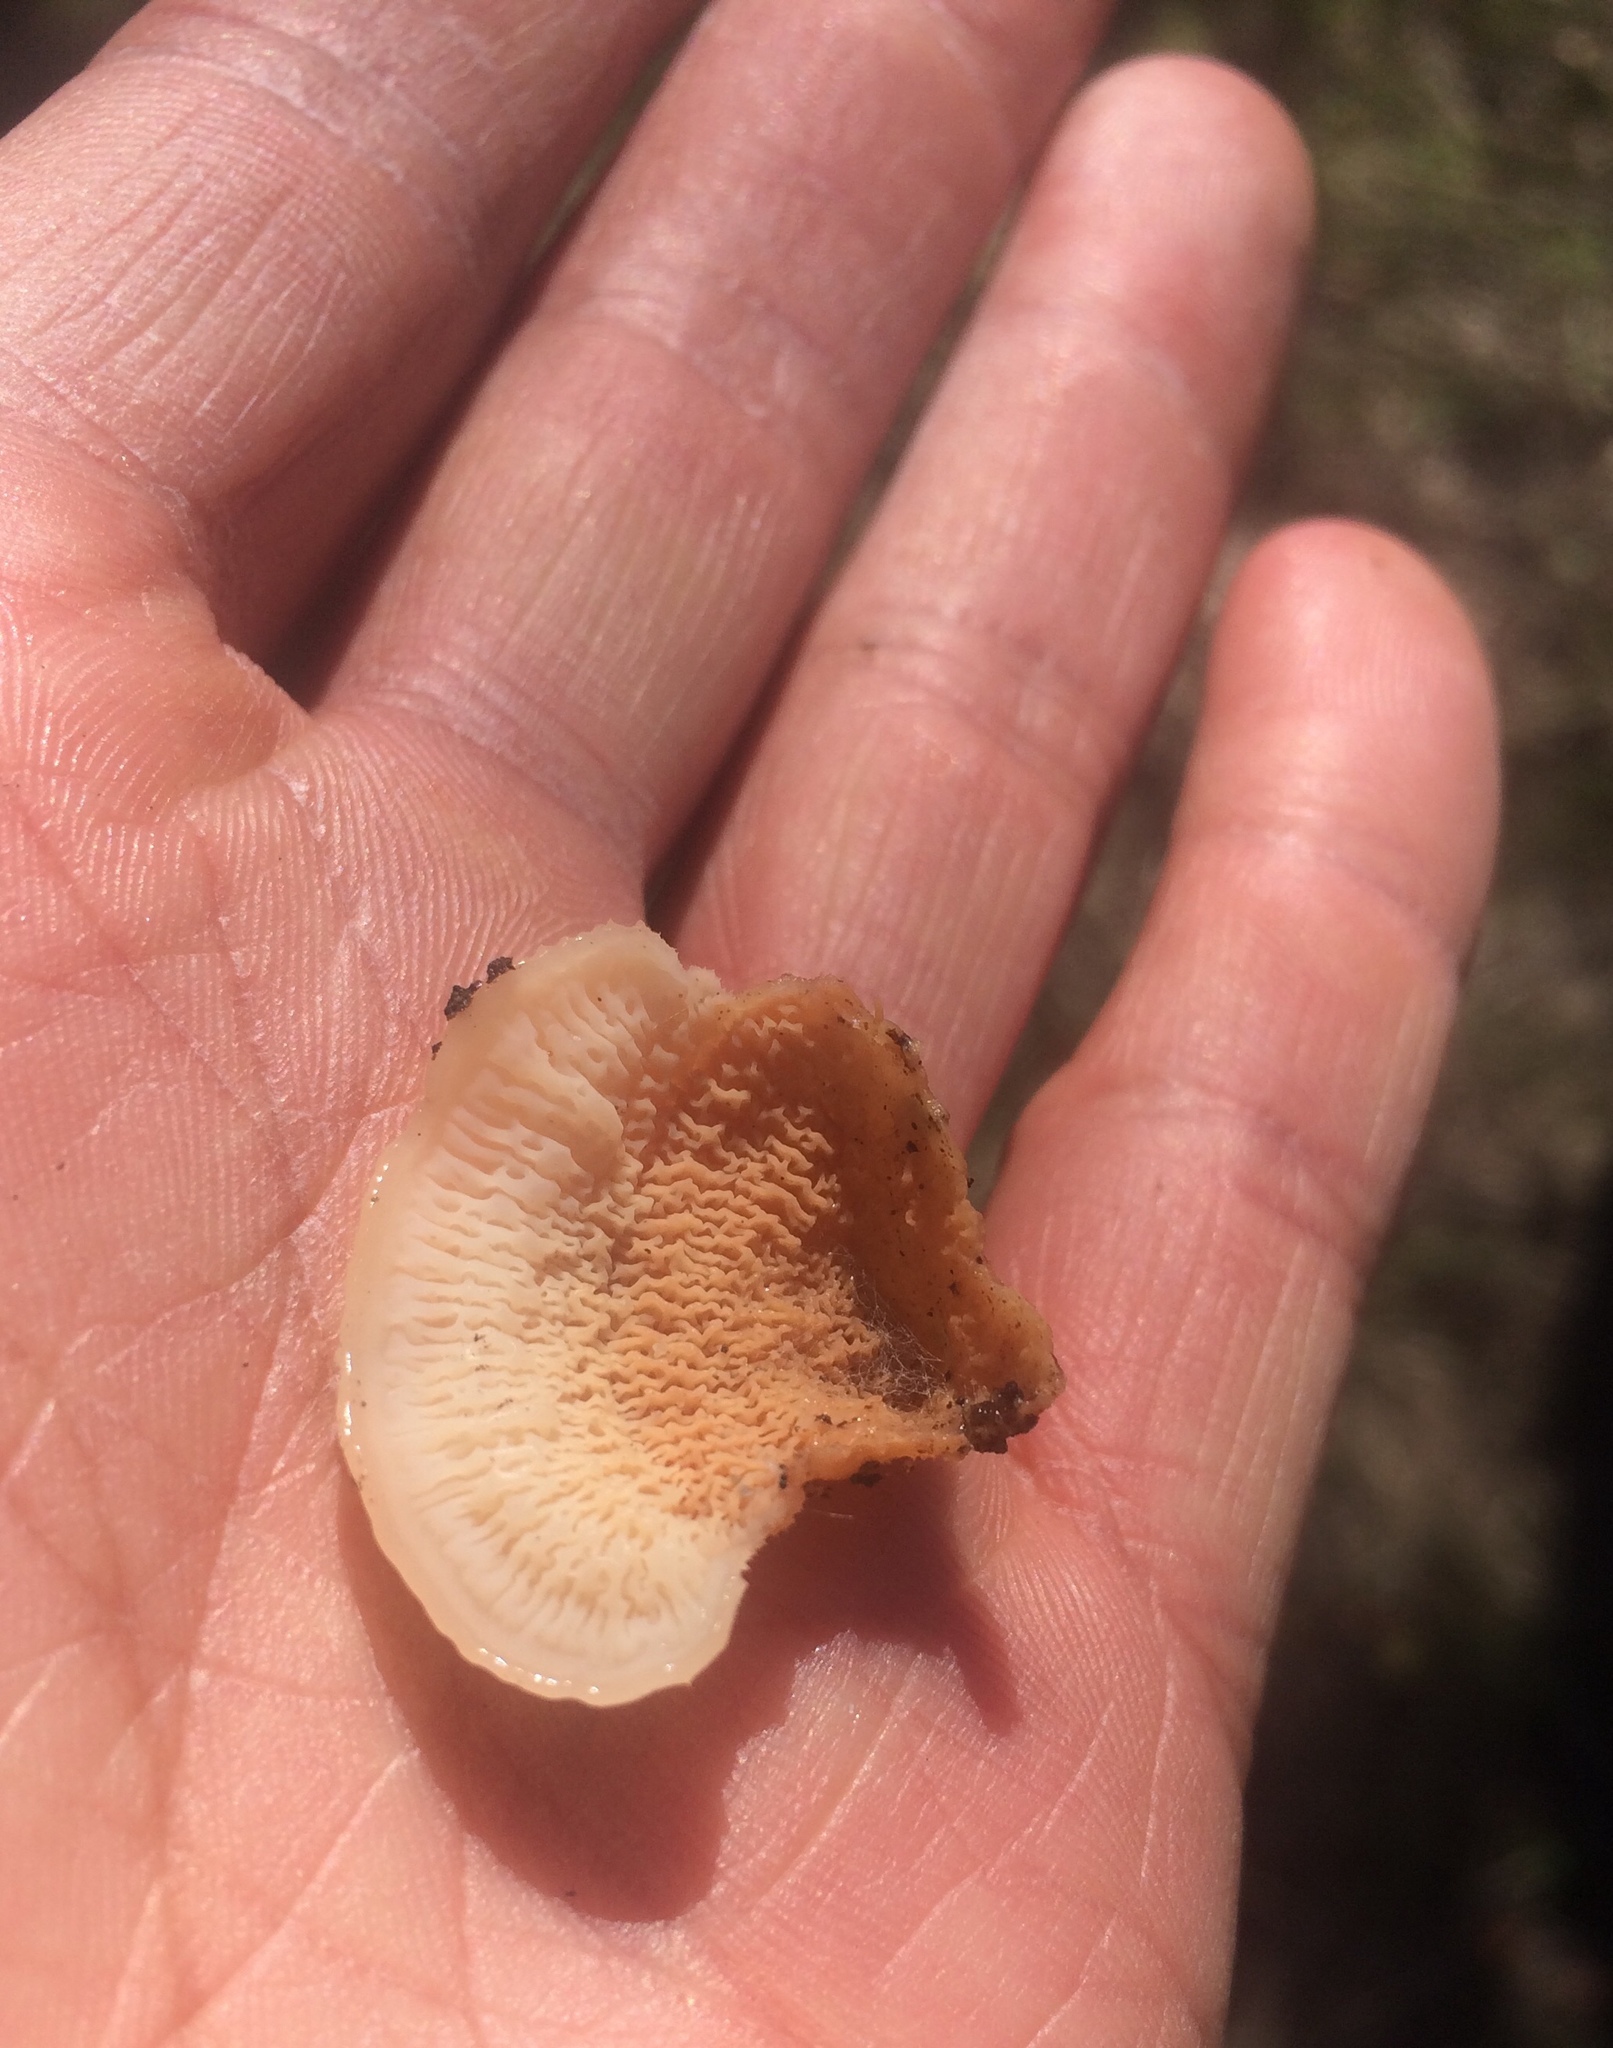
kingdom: Fungi
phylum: Basidiomycota
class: Agaricomycetes
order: Polyporales
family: Meruliaceae
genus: Phlebia
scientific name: Phlebia tremellosa
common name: Jelly rot
